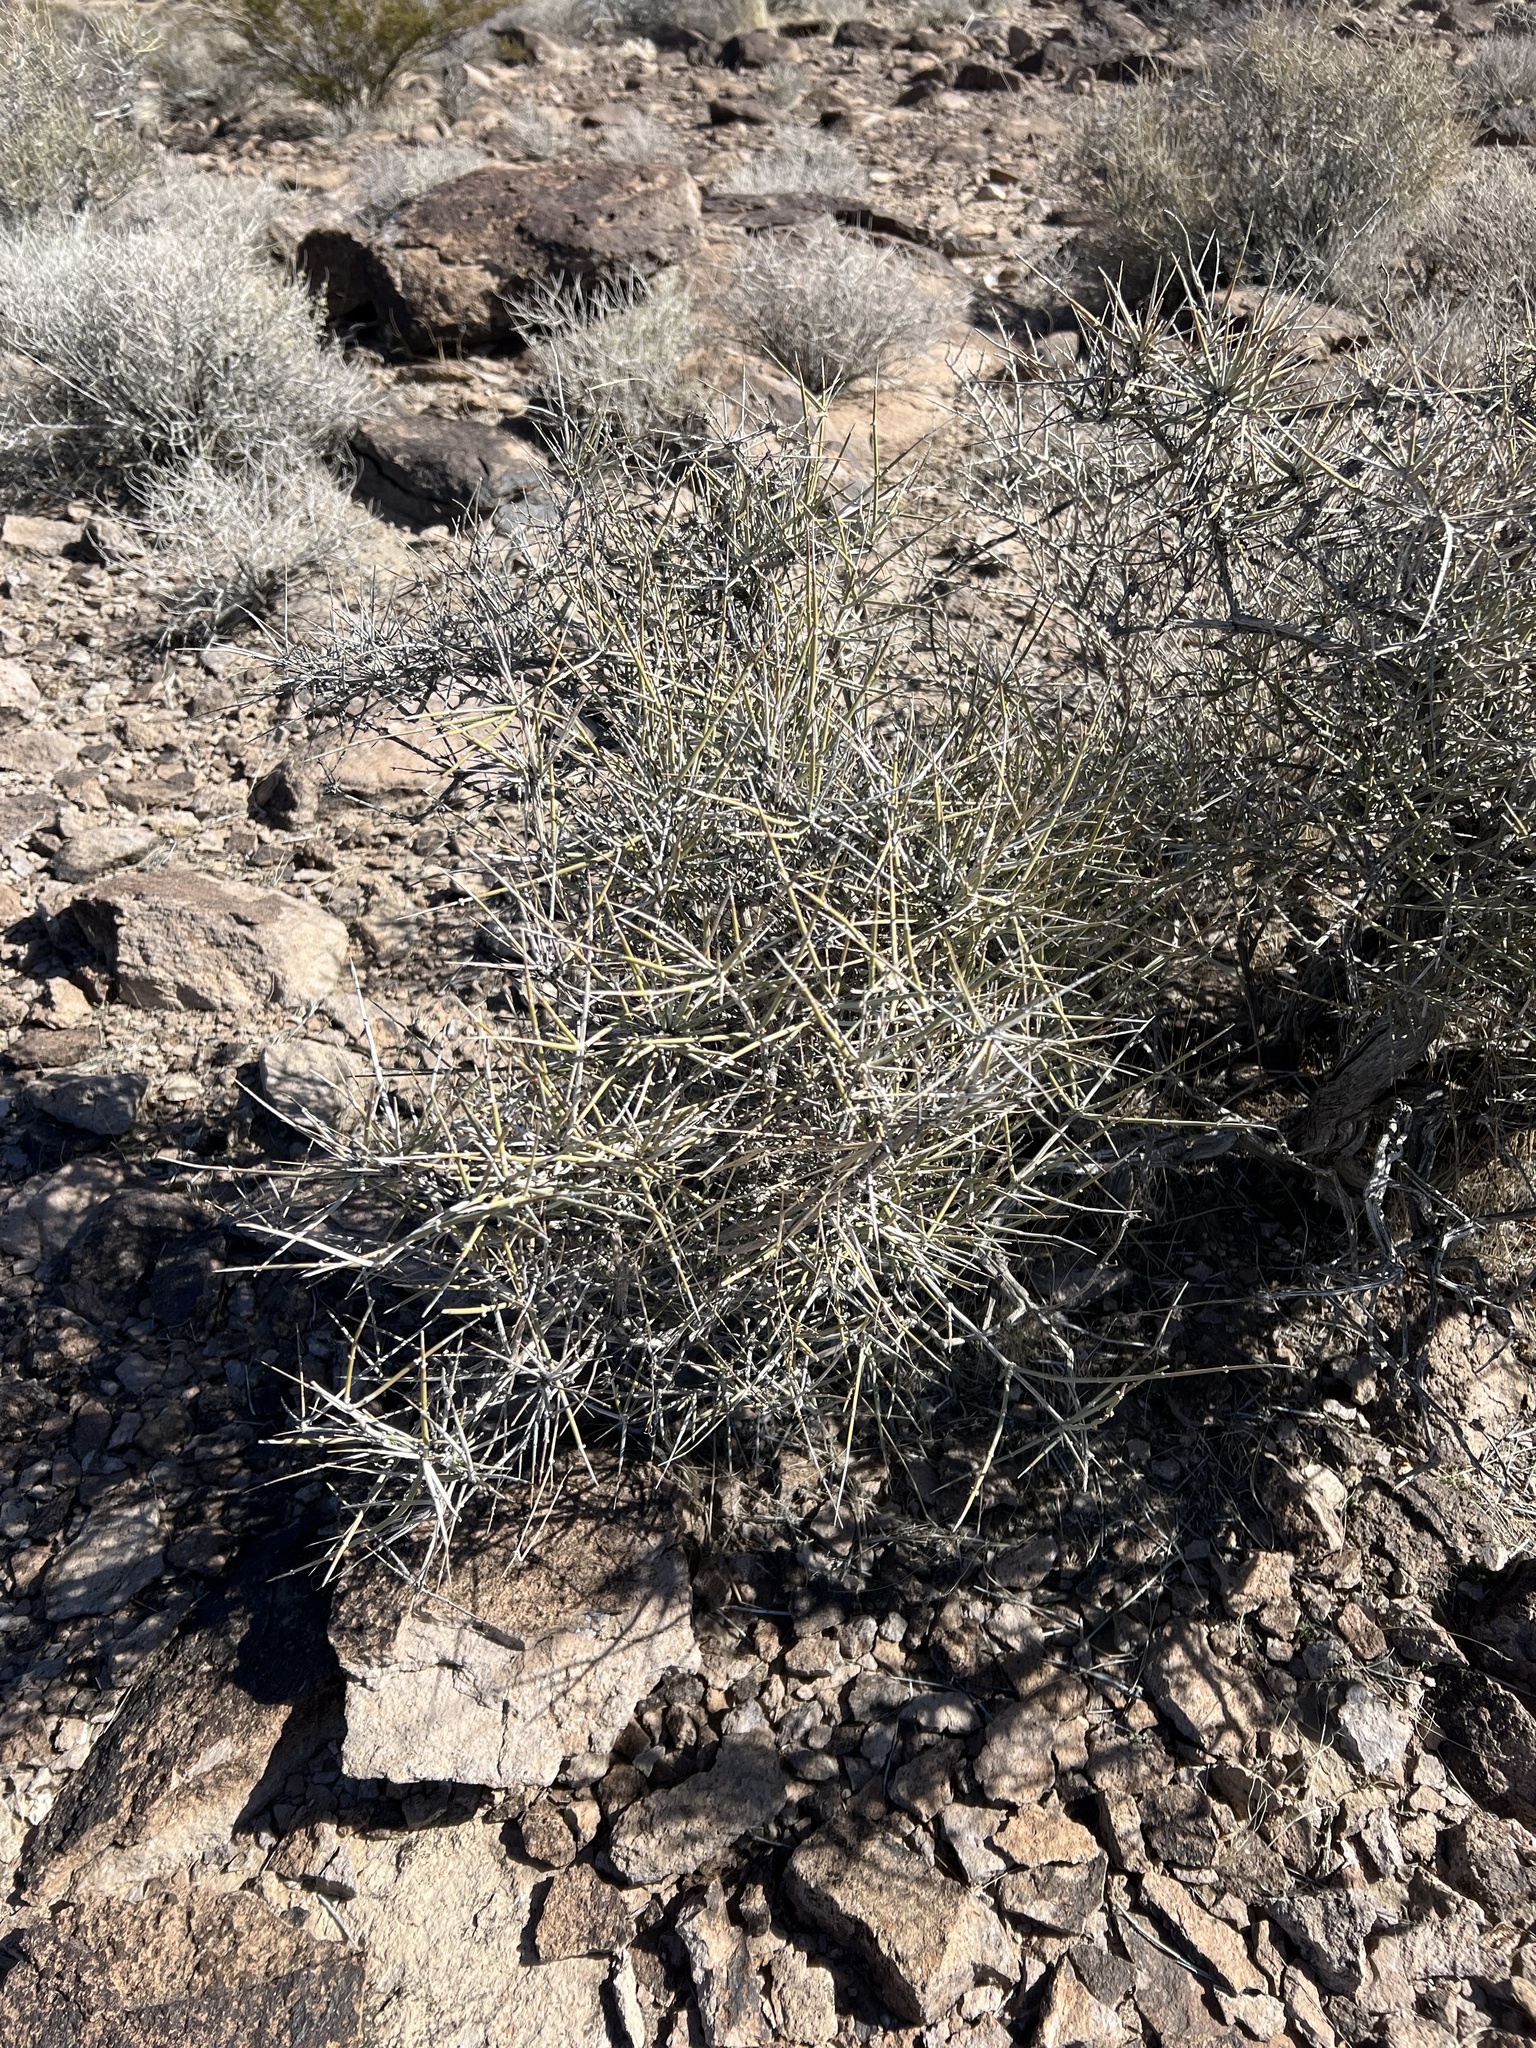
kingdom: Plantae
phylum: Tracheophyta
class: Gnetopsida
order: Ephedrales
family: Ephedraceae
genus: Ephedra
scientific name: Ephedra nevadensis
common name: Gray ephedra
